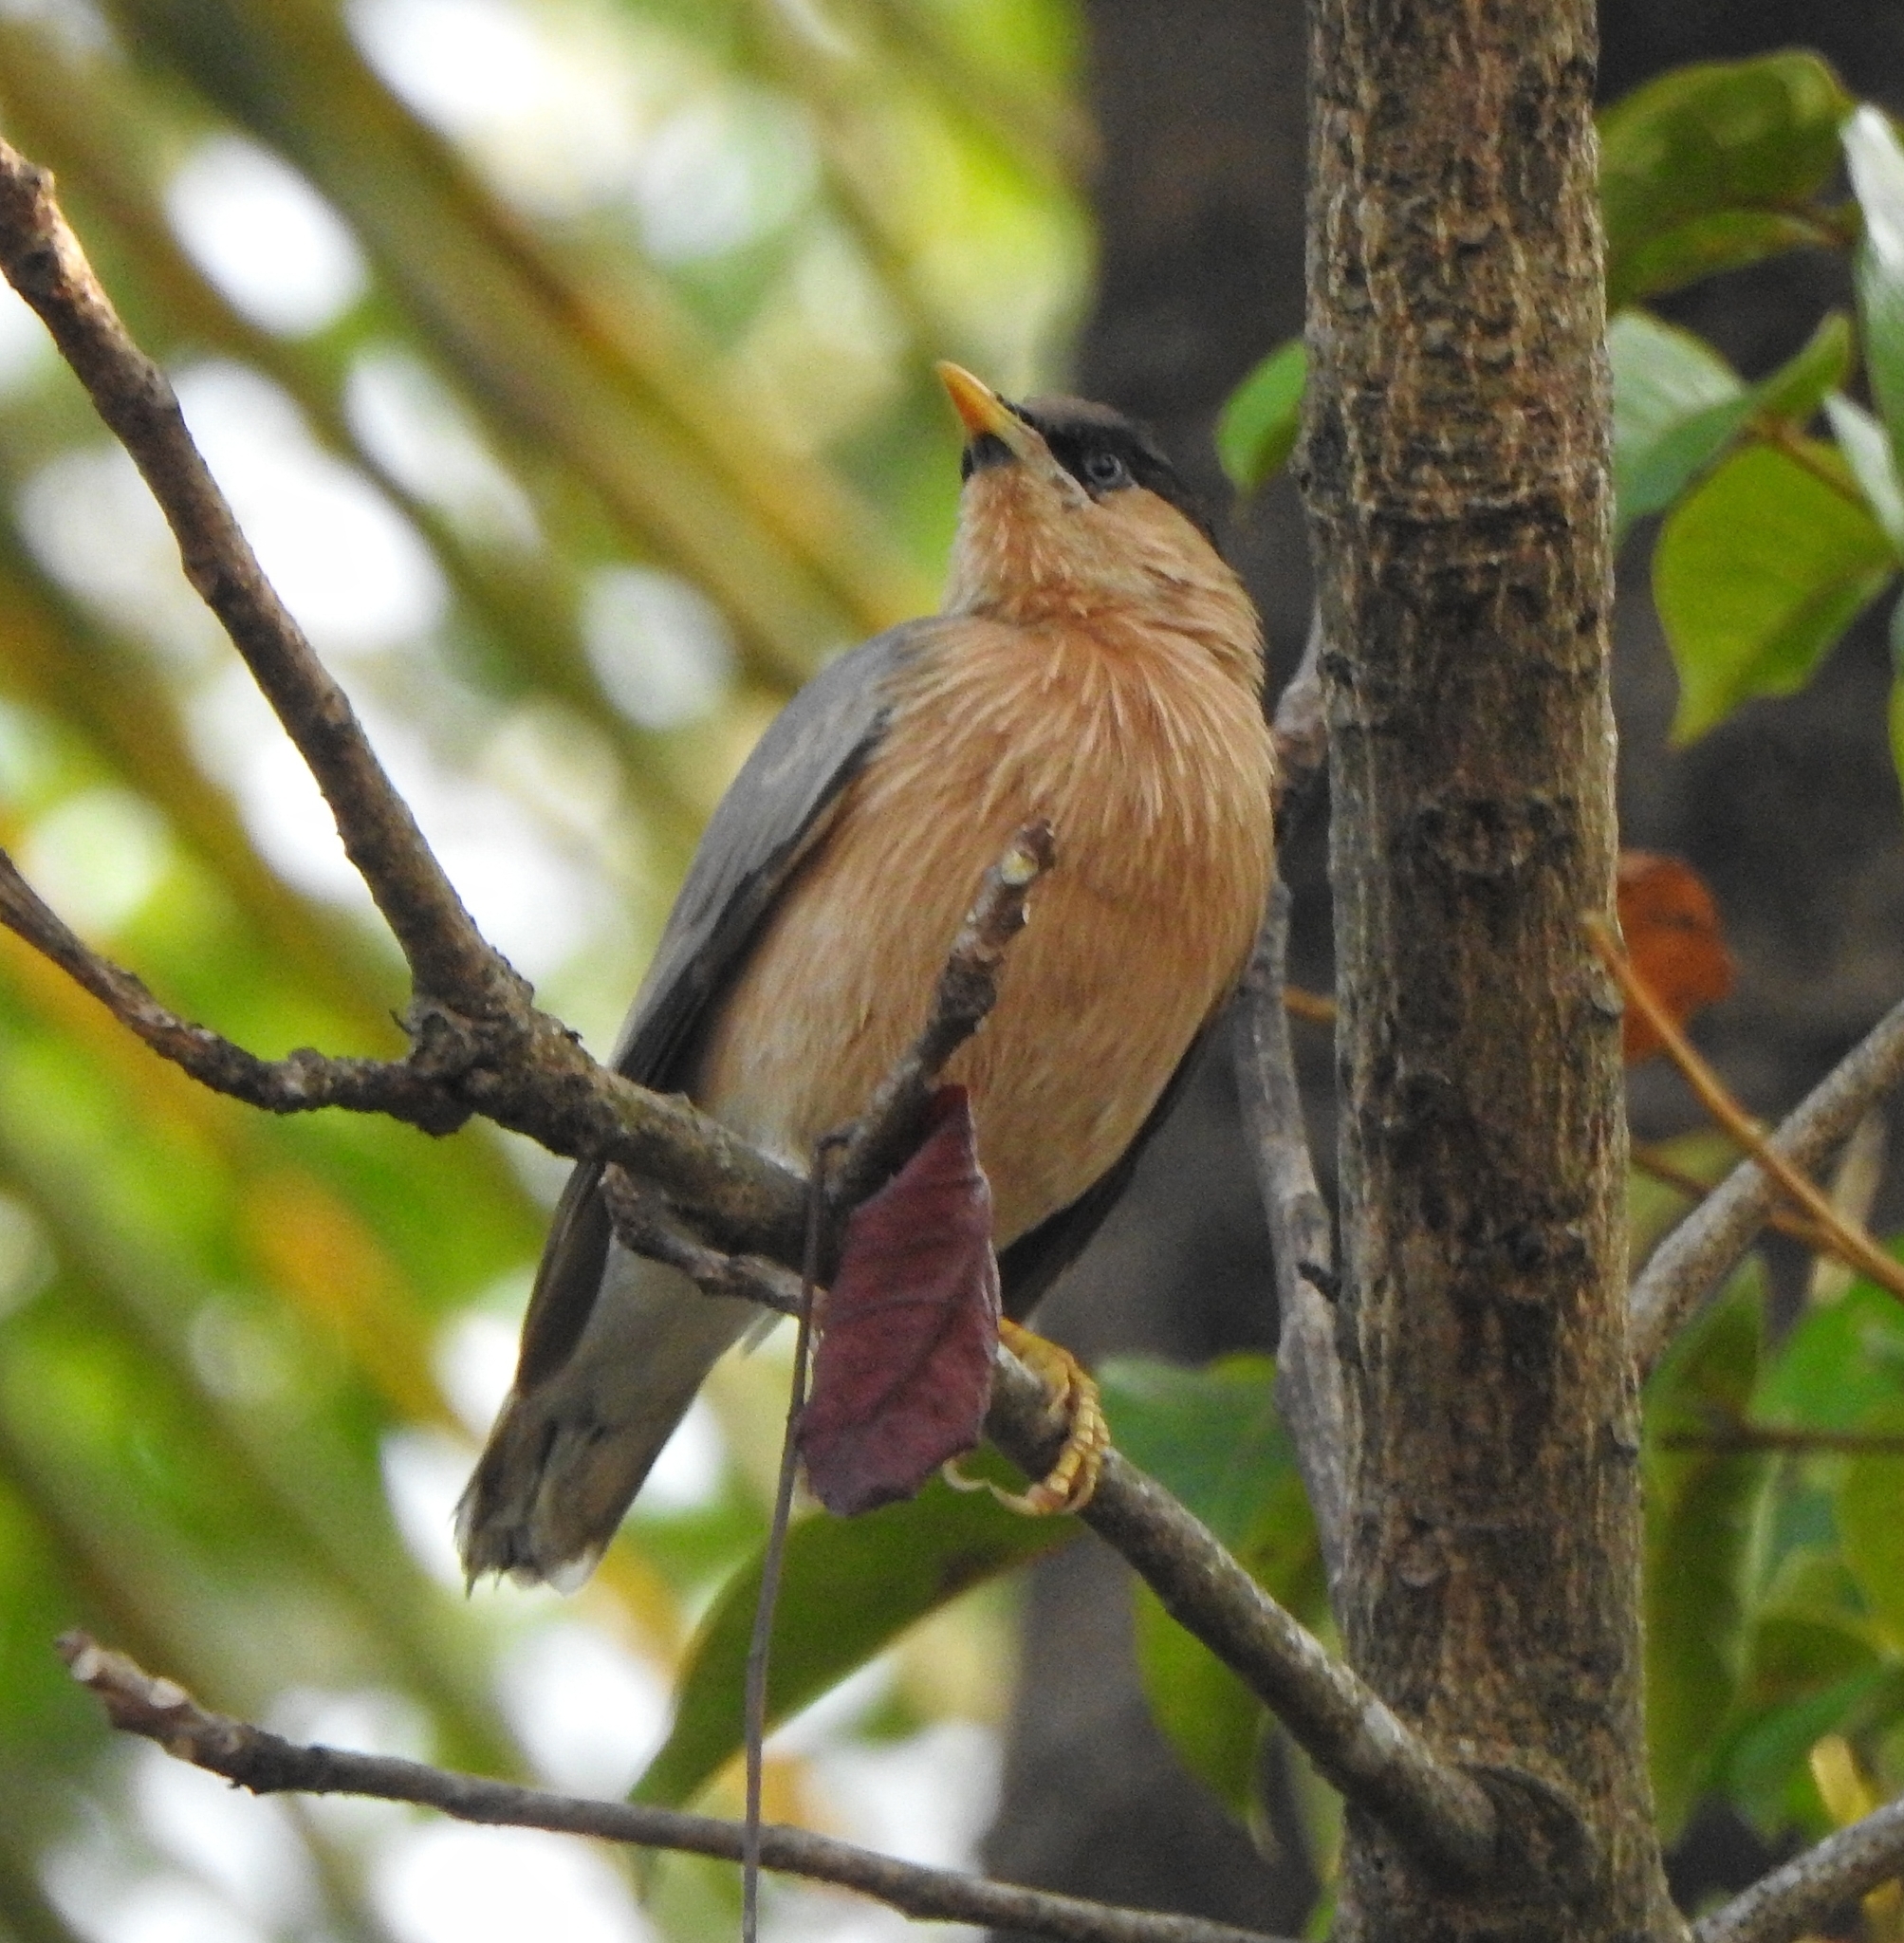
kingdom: Animalia
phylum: Chordata
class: Aves
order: Passeriformes
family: Sturnidae
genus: Sturnia
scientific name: Sturnia pagodarum
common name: Brahminy starling
